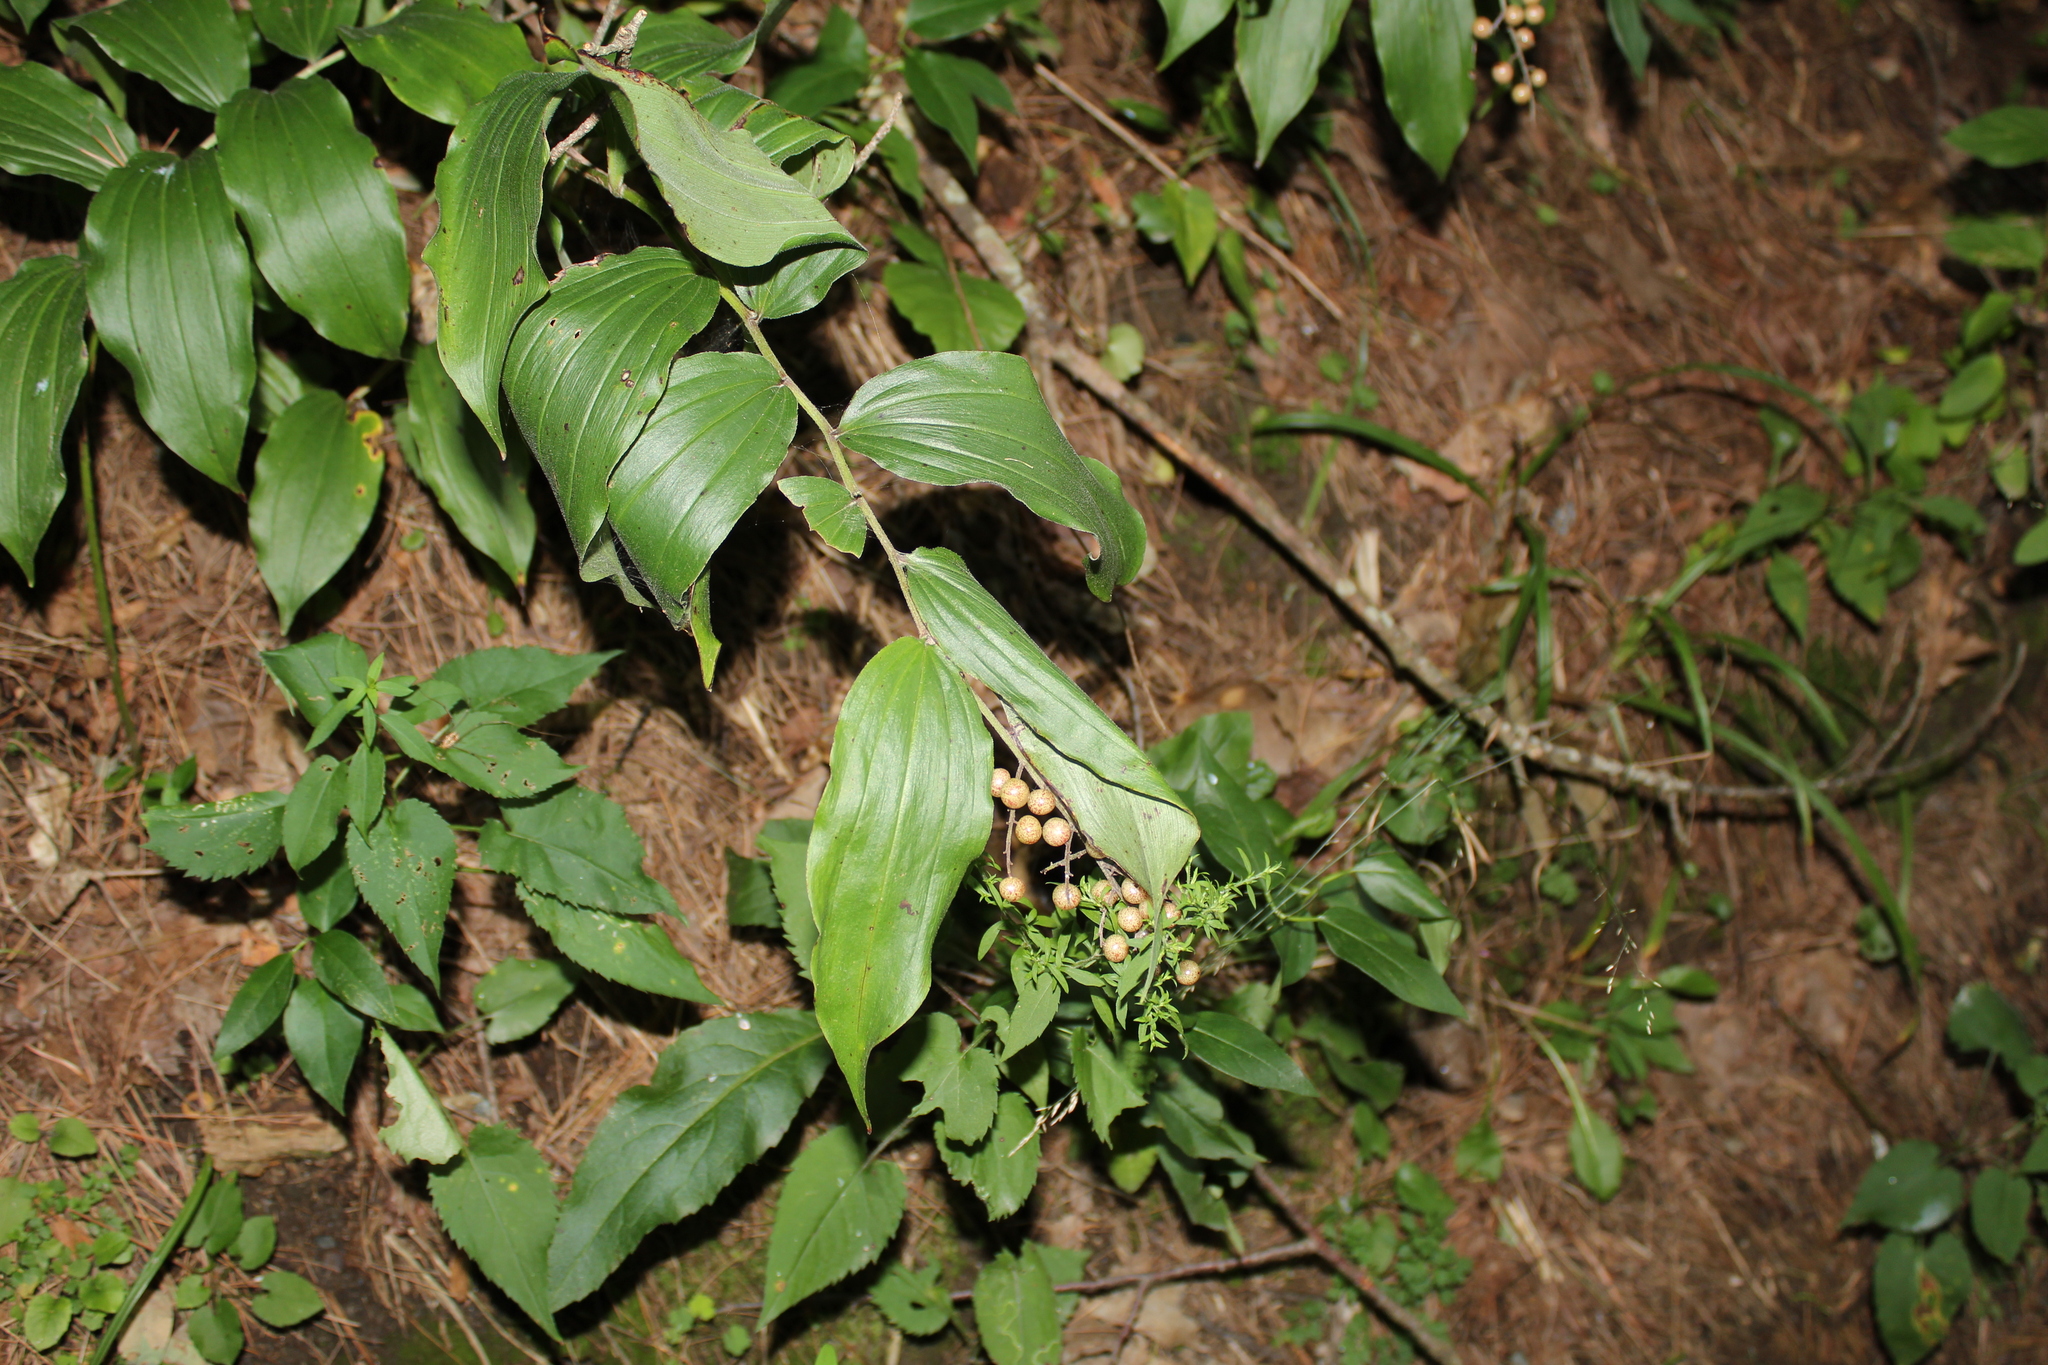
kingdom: Plantae
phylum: Tracheophyta
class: Liliopsida
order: Asparagales
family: Asparagaceae
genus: Maianthemum
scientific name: Maianthemum racemosum
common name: False spikenard
